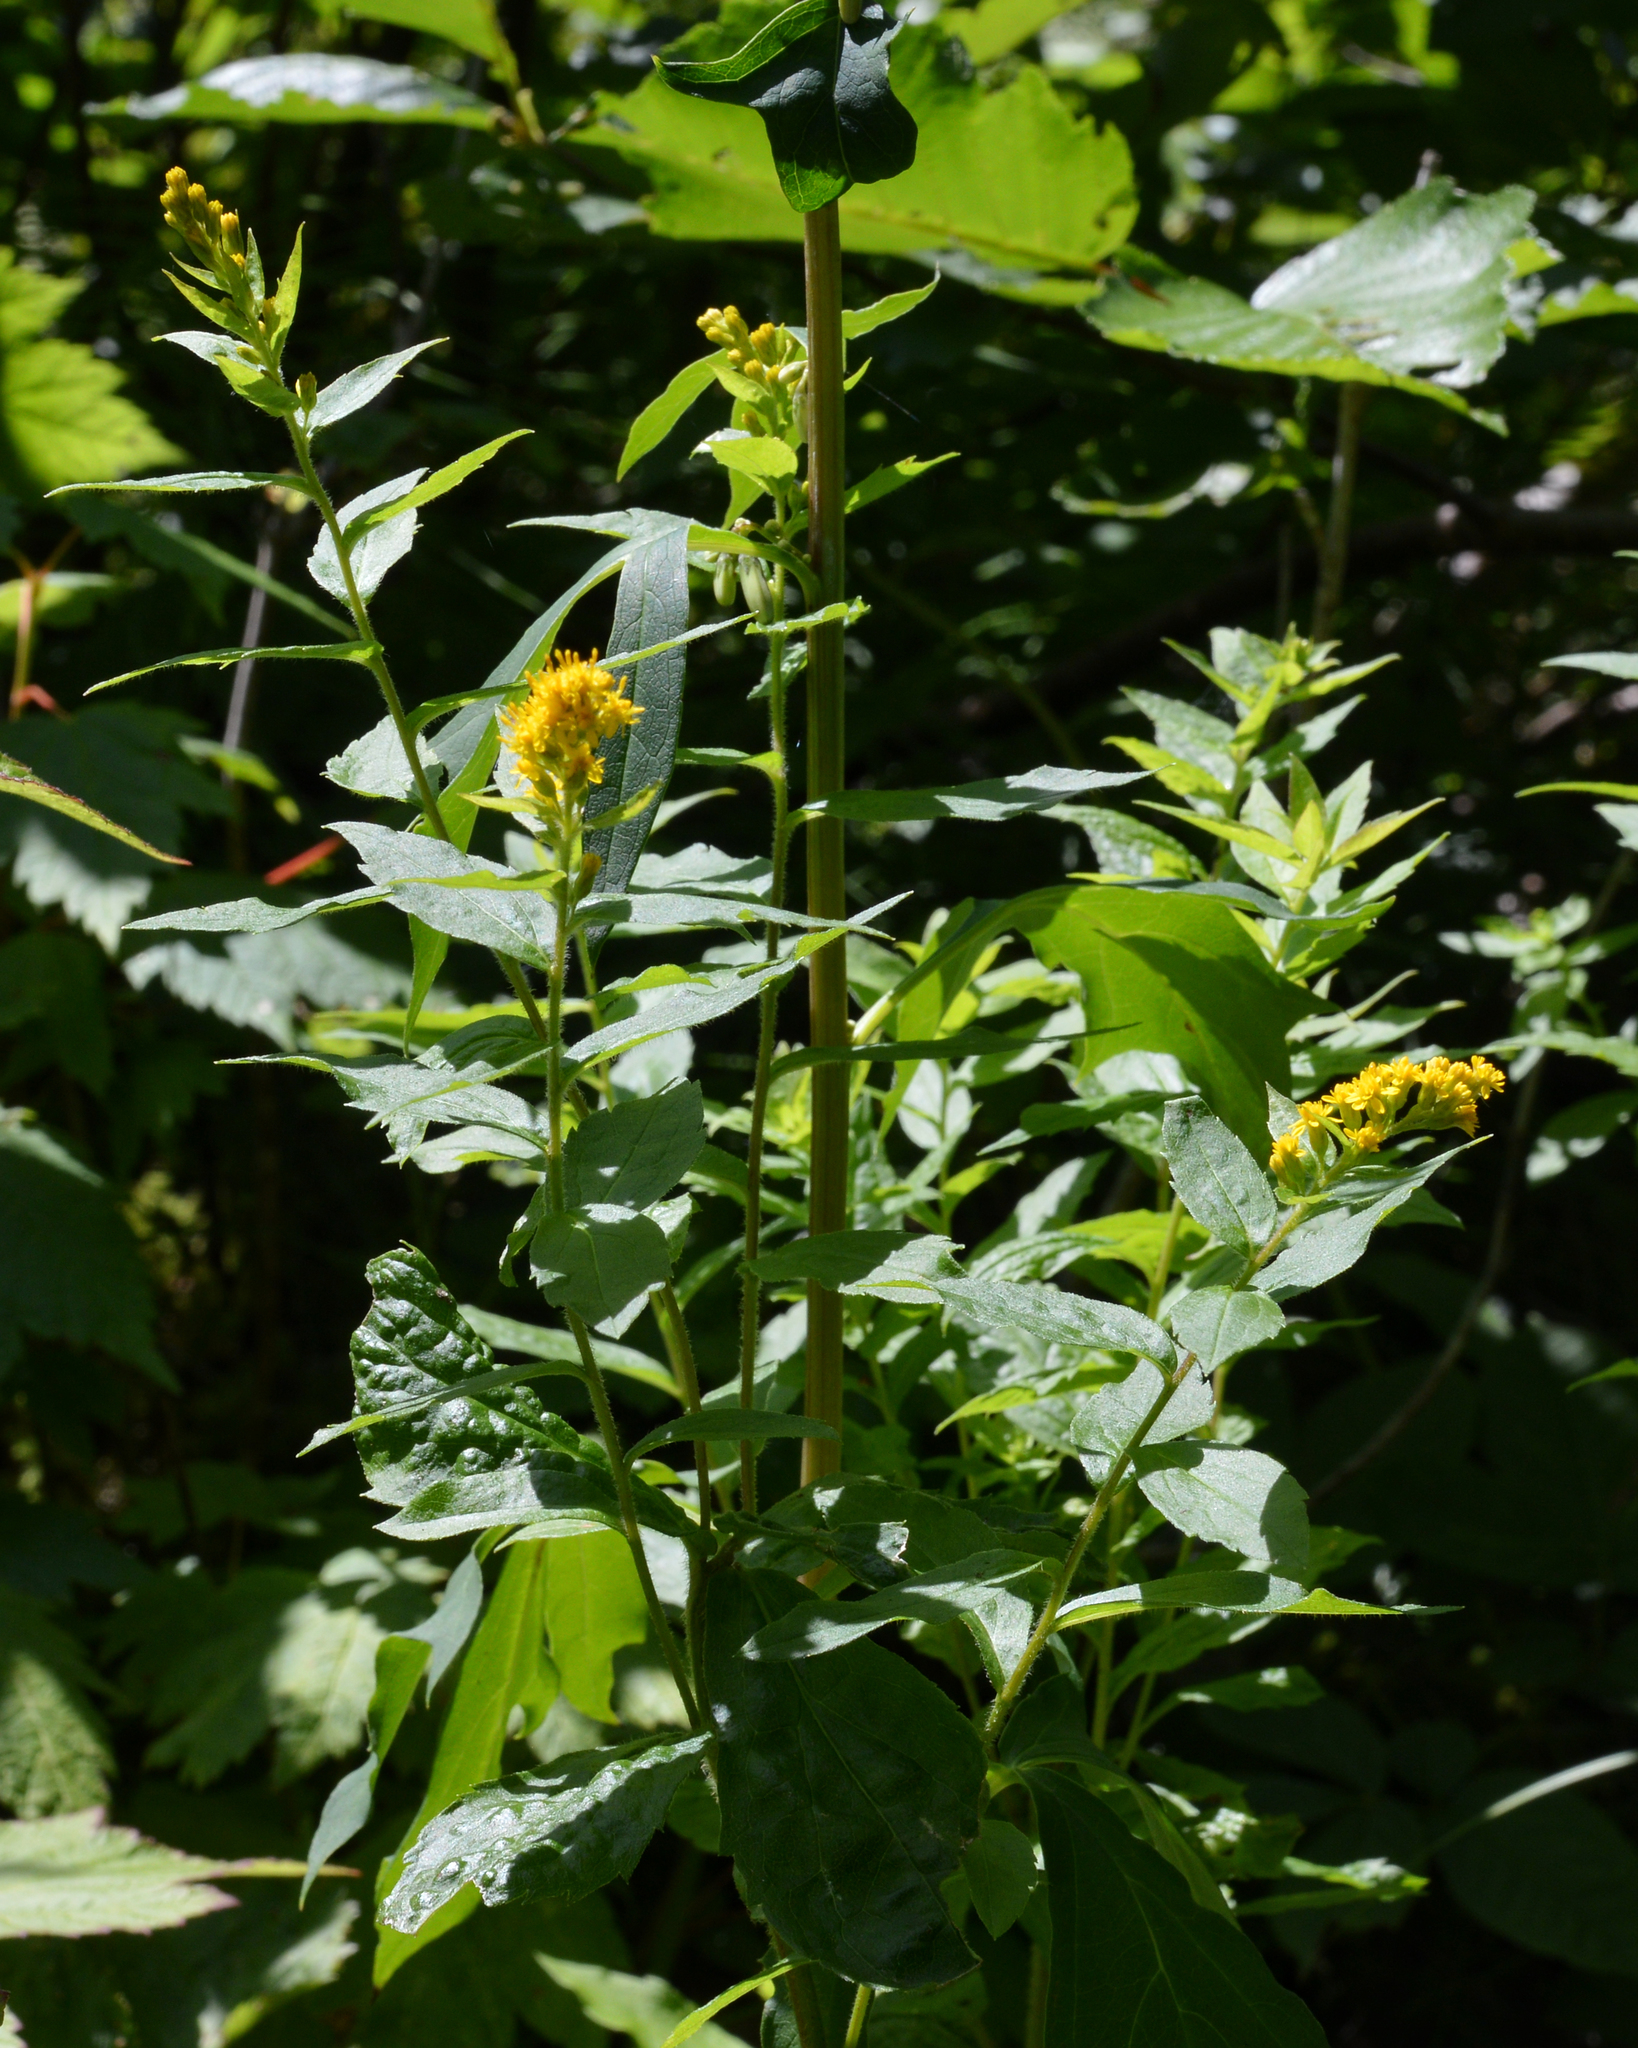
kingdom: Plantae
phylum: Tracheophyta
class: Magnoliopsida
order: Asterales
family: Asteraceae
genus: Solidago
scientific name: Solidago rugosa
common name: Rough-stemmed goldenrod
